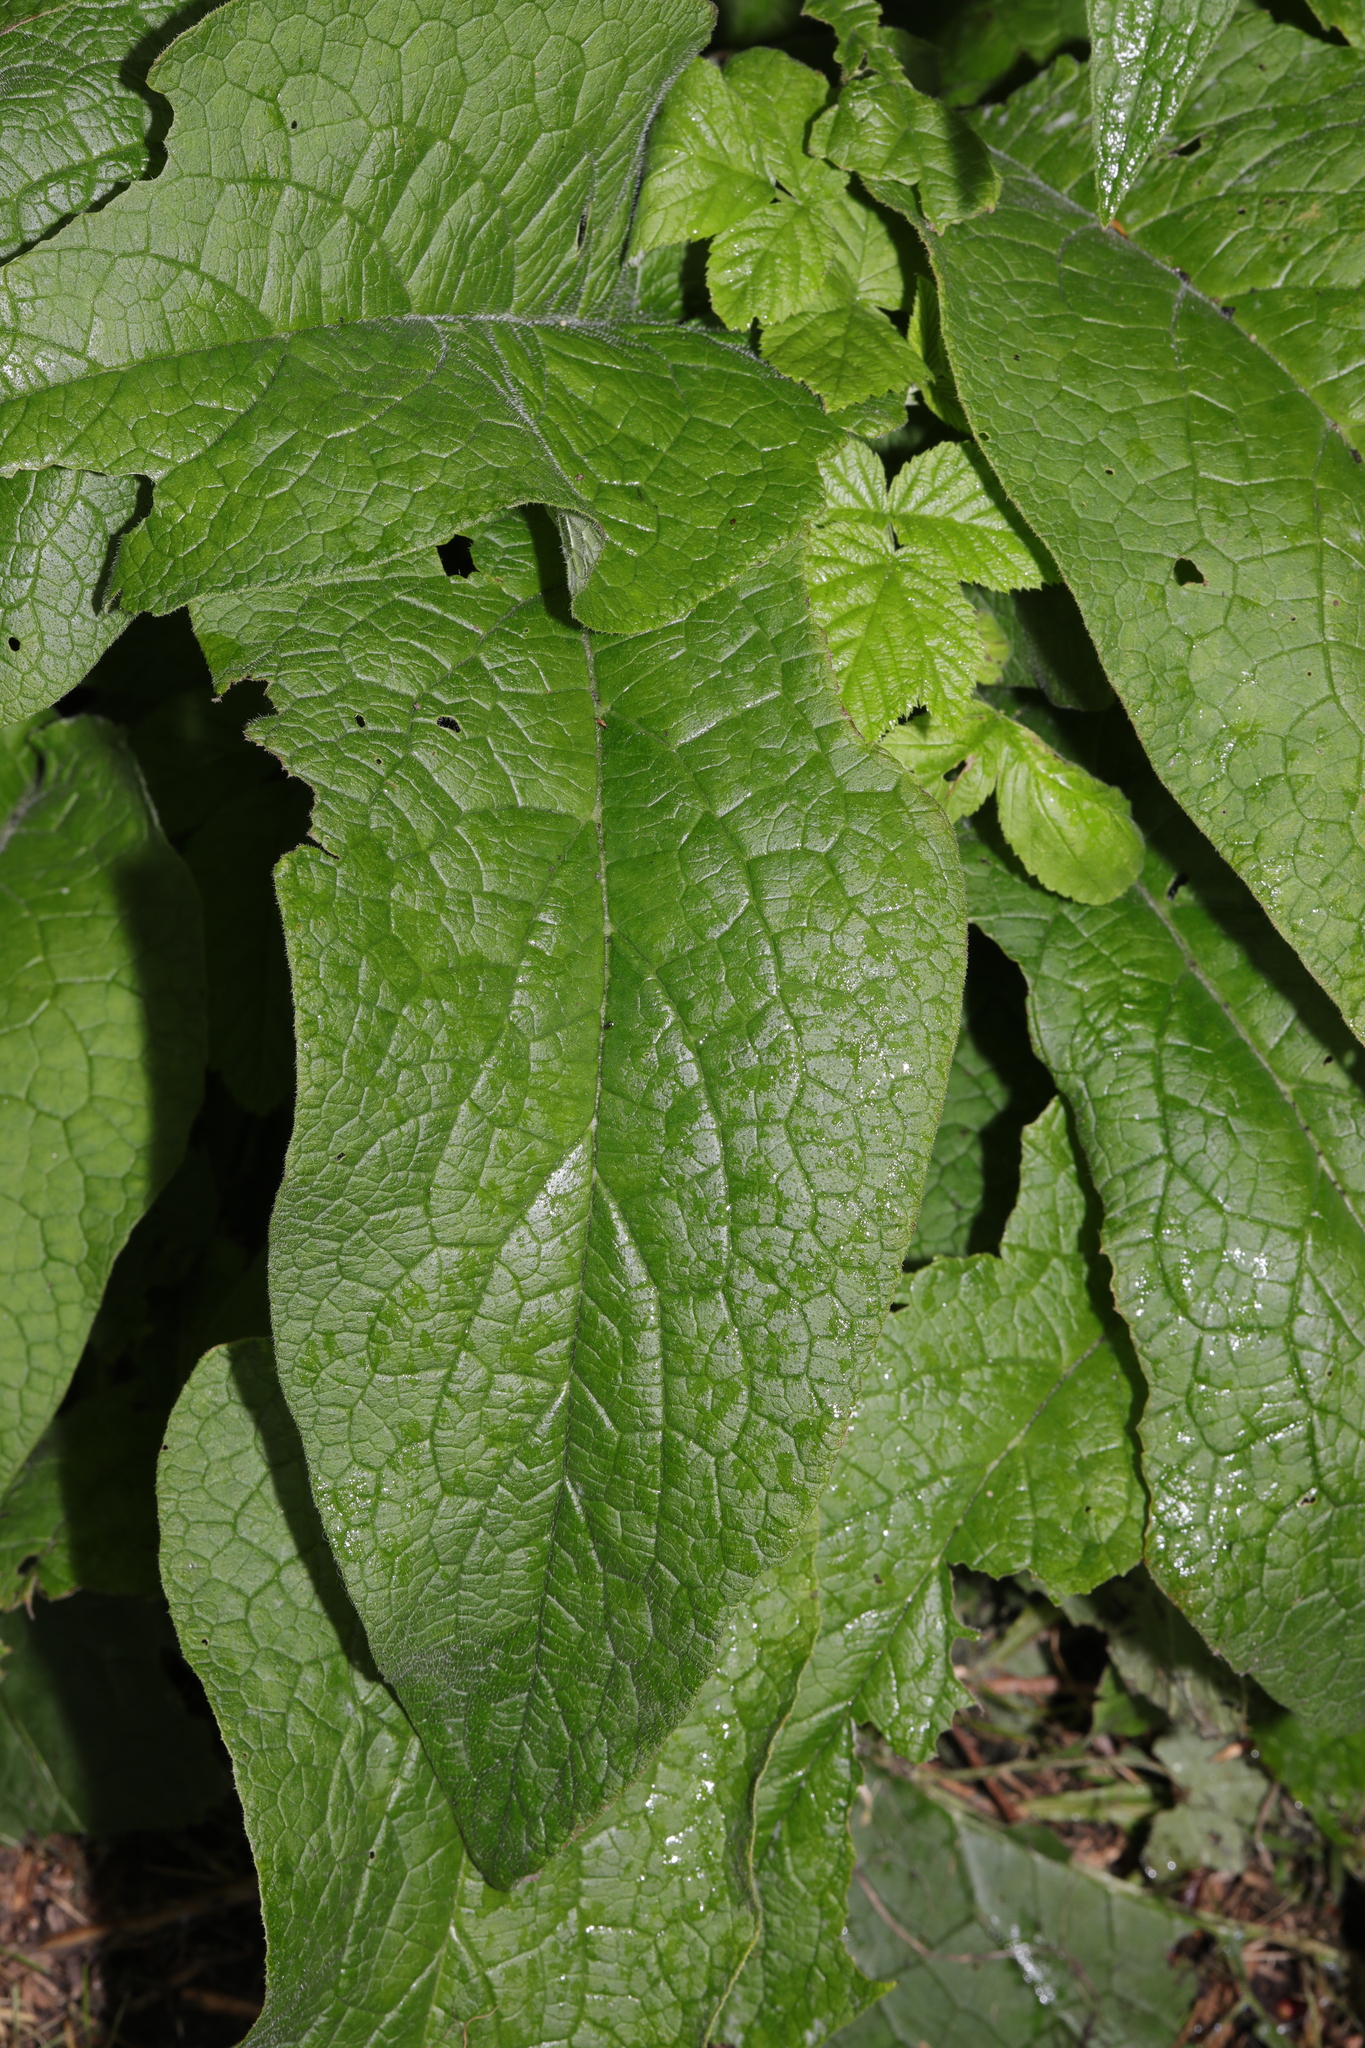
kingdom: Plantae
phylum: Tracheophyta
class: Magnoliopsida
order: Lamiales
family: Plantaginaceae
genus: Digitalis
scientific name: Digitalis purpurea
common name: Foxglove
